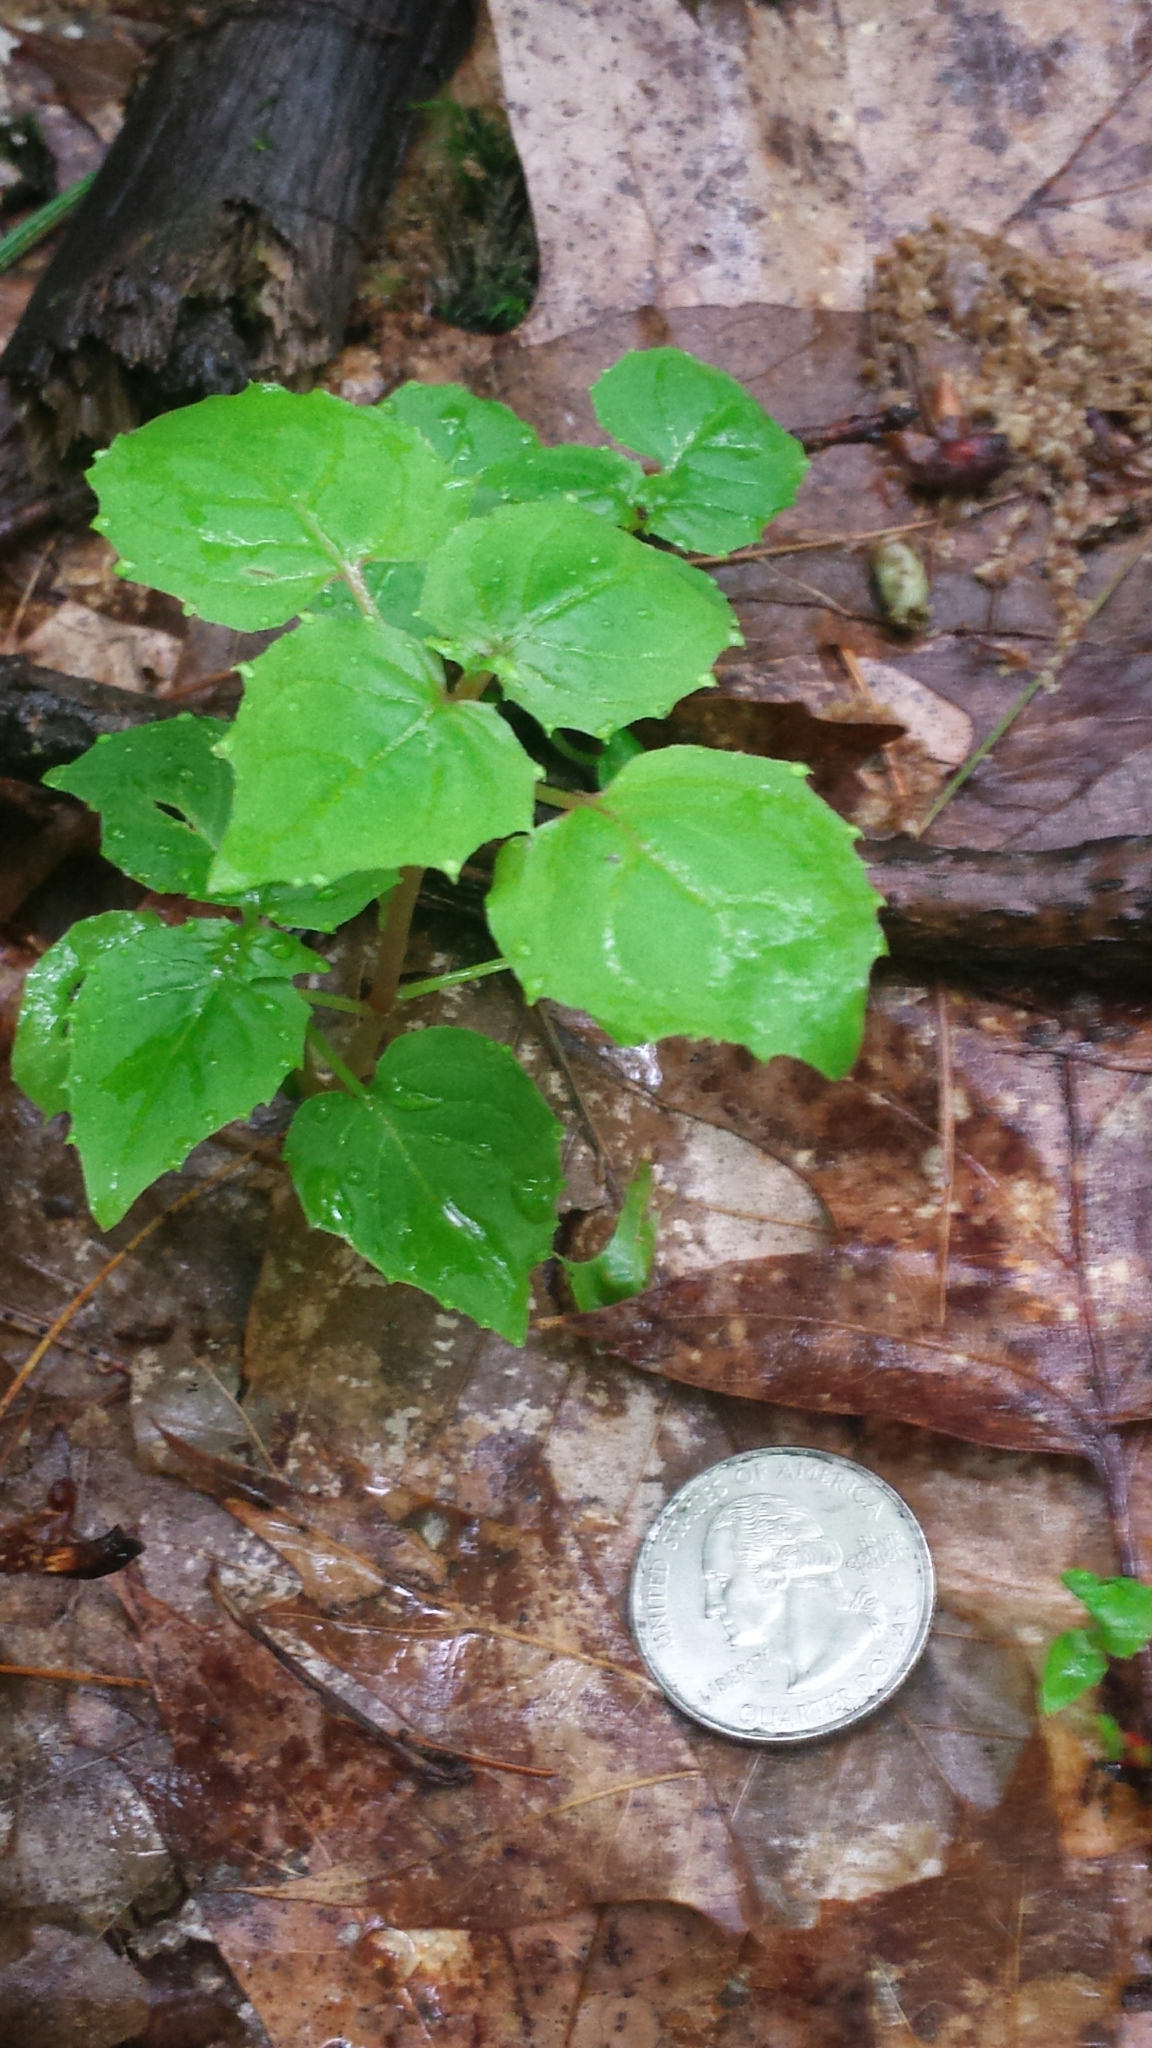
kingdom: Plantae
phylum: Tracheophyta
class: Magnoliopsida
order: Myrtales
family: Onagraceae
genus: Circaea
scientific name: Circaea alpina
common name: Alpine enchanter's-nightshade
